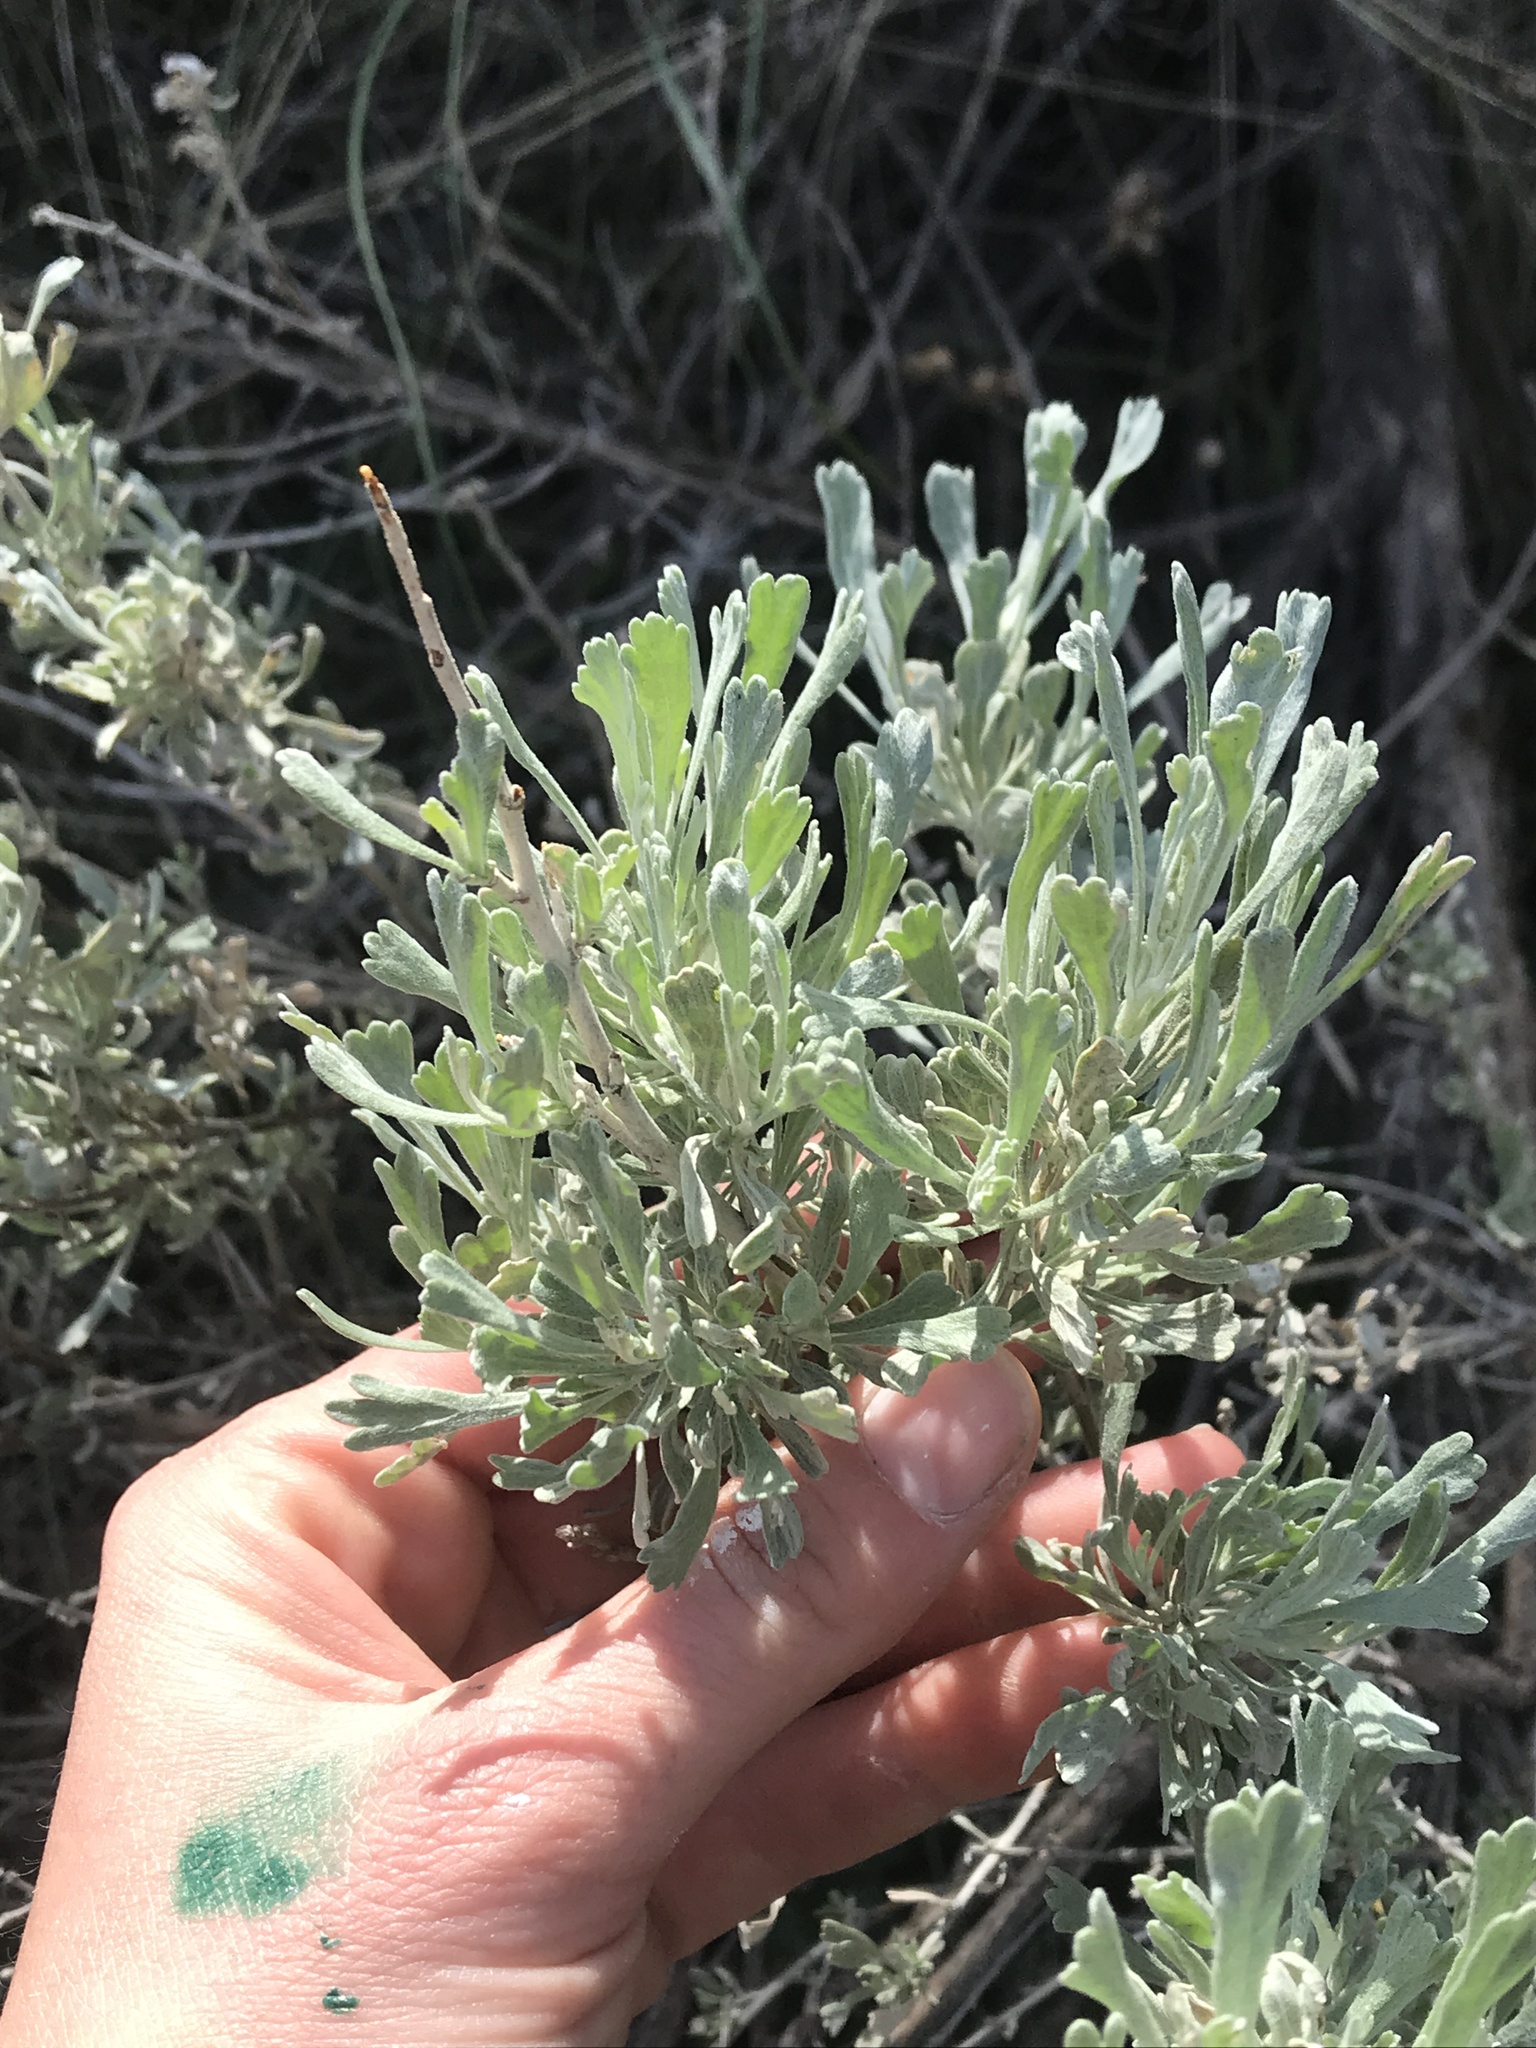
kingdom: Plantae
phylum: Tracheophyta
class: Magnoliopsida
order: Asterales
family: Asteraceae
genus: Artemisia
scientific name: Artemisia tridentata
